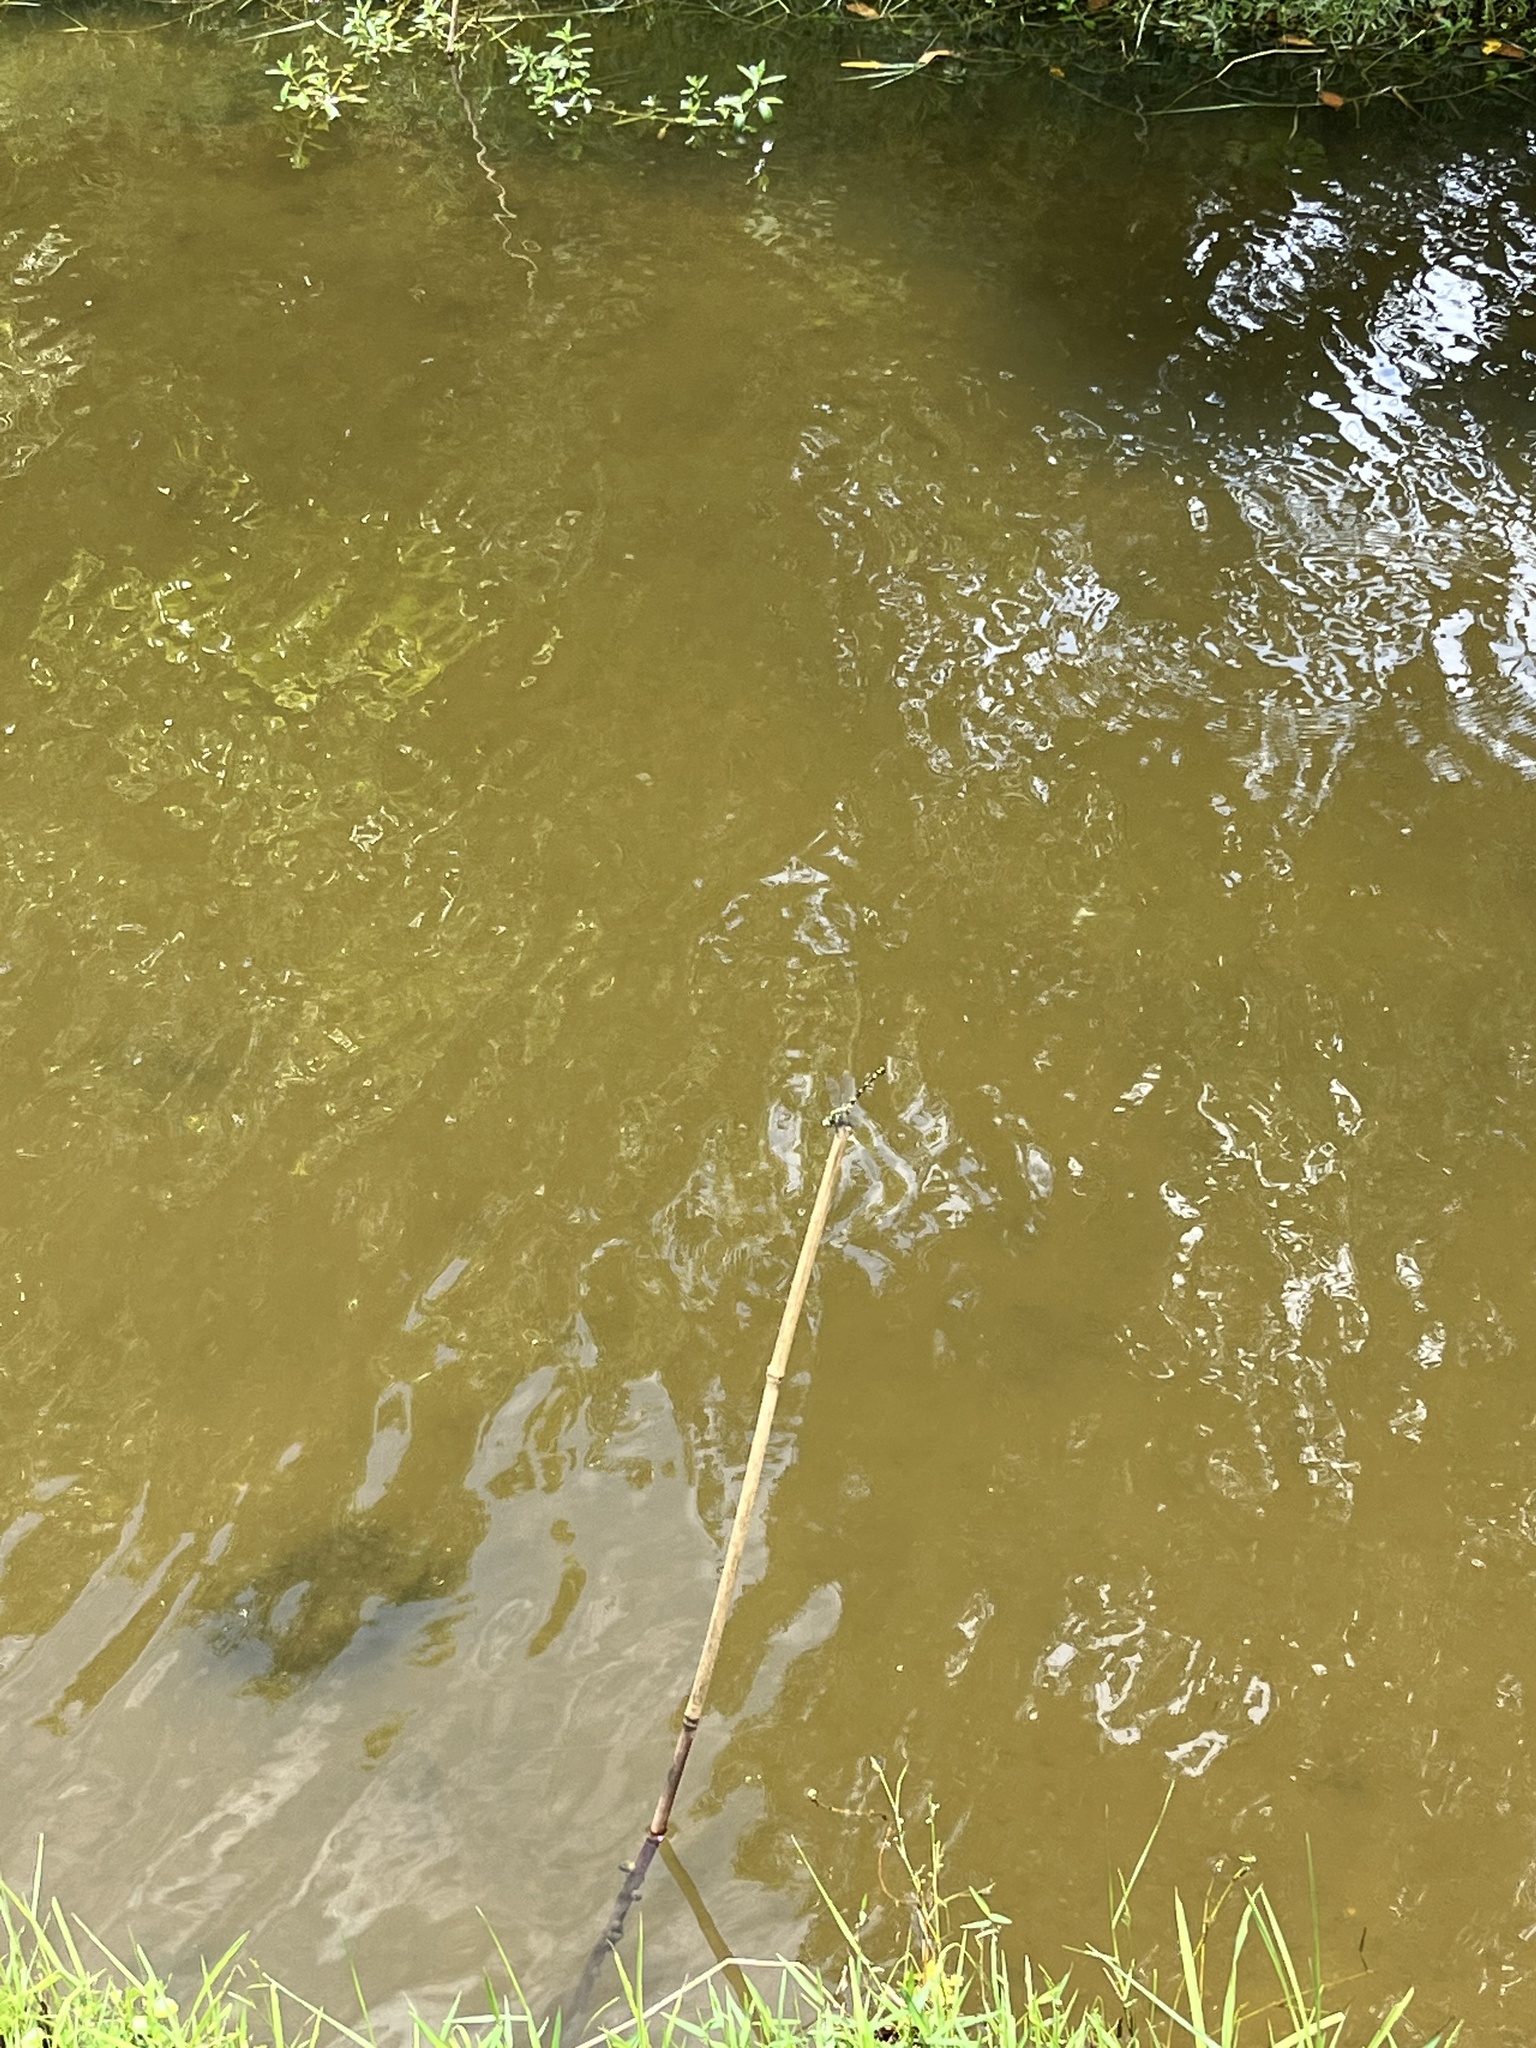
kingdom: Animalia
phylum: Arthropoda
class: Insecta
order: Odonata
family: Gomphidae
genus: Ictinogomphus
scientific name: Ictinogomphus pertinax
